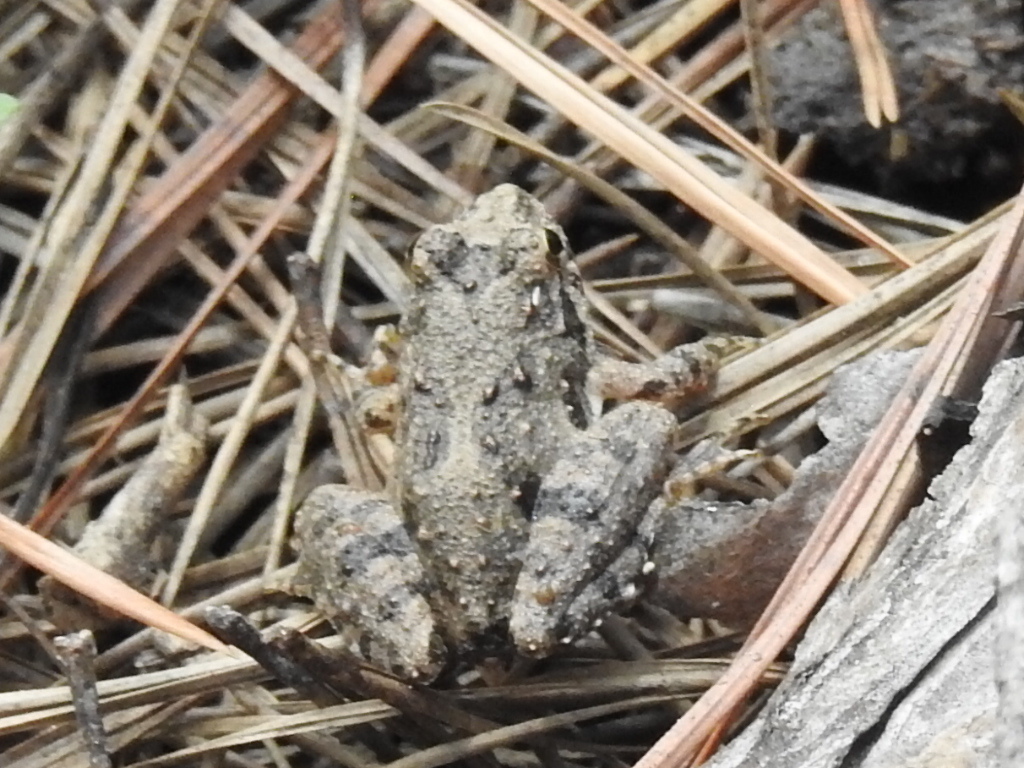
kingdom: Animalia
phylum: Chordata
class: Amphibia
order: Anura
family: Hylidae
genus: Acris
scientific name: Acris blanchardi
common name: Blanchard's cricket frog
